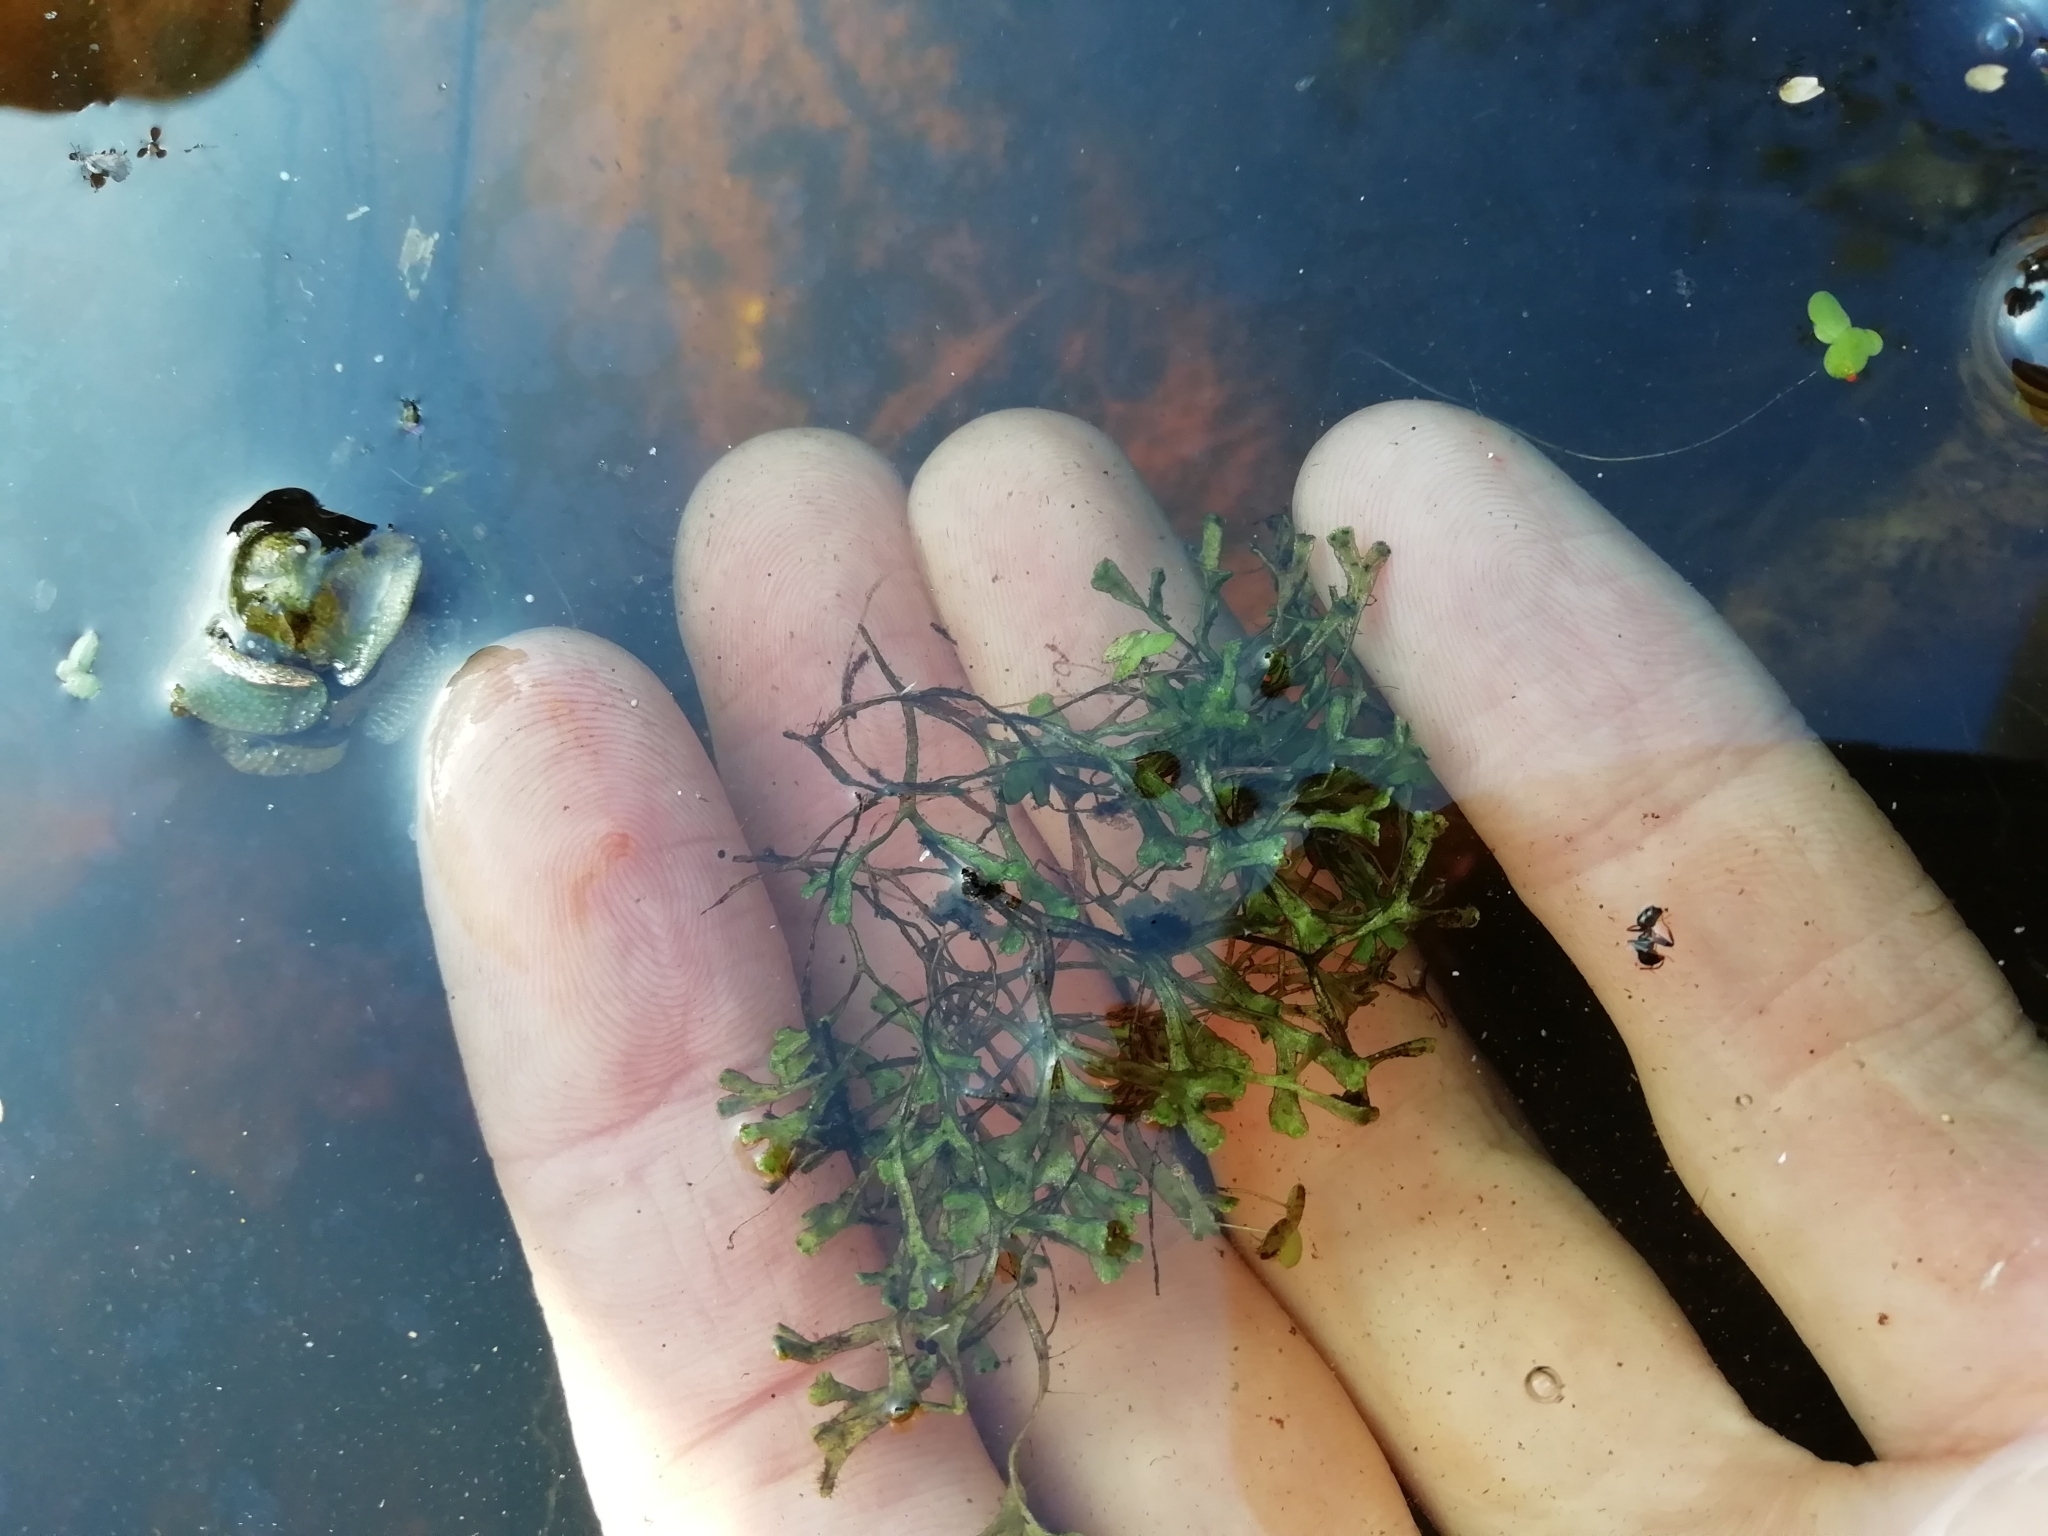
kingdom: Plantae
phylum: Marchantiophyta
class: Marchantiopsida
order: Marchantiales
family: Ricciaceae
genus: Riccia
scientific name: Riccia fluitans
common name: Floating crystalwort
